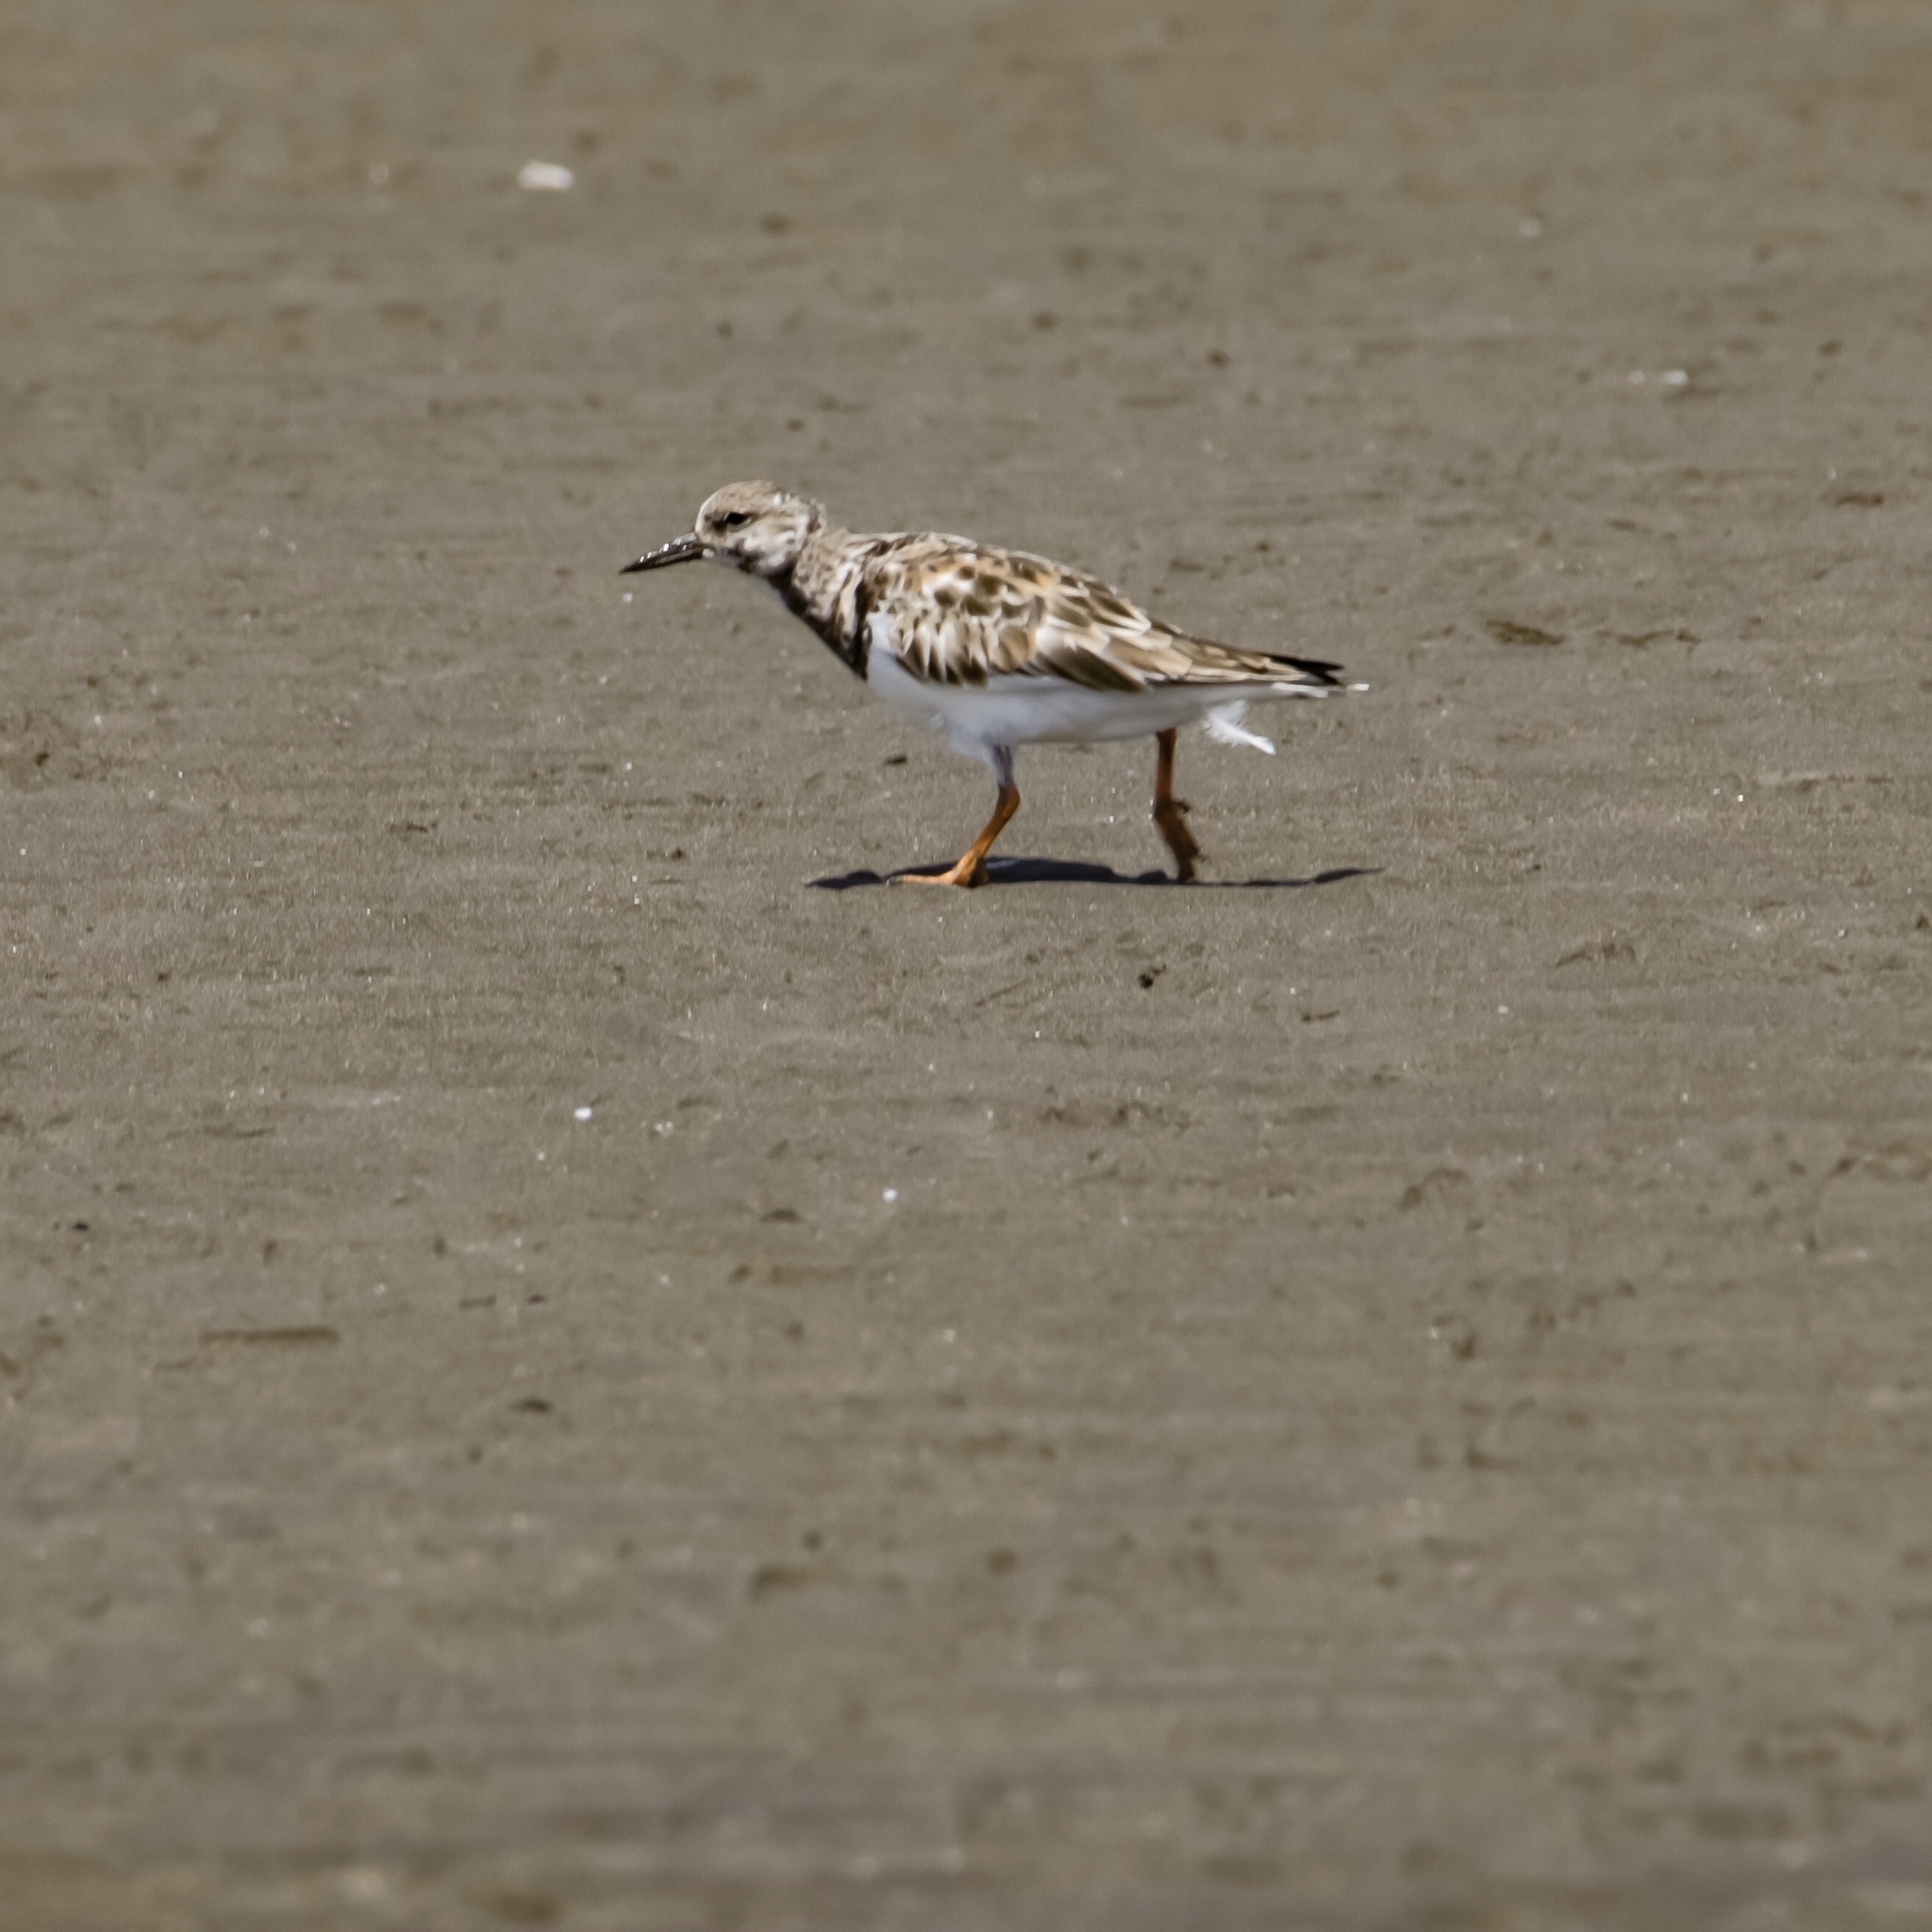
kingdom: Animalia
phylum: Chordata
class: Aves
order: Charadriiformes
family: Scolopacidae
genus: Arenaria
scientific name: Arenaria interpres
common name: Ruddy turnstone
